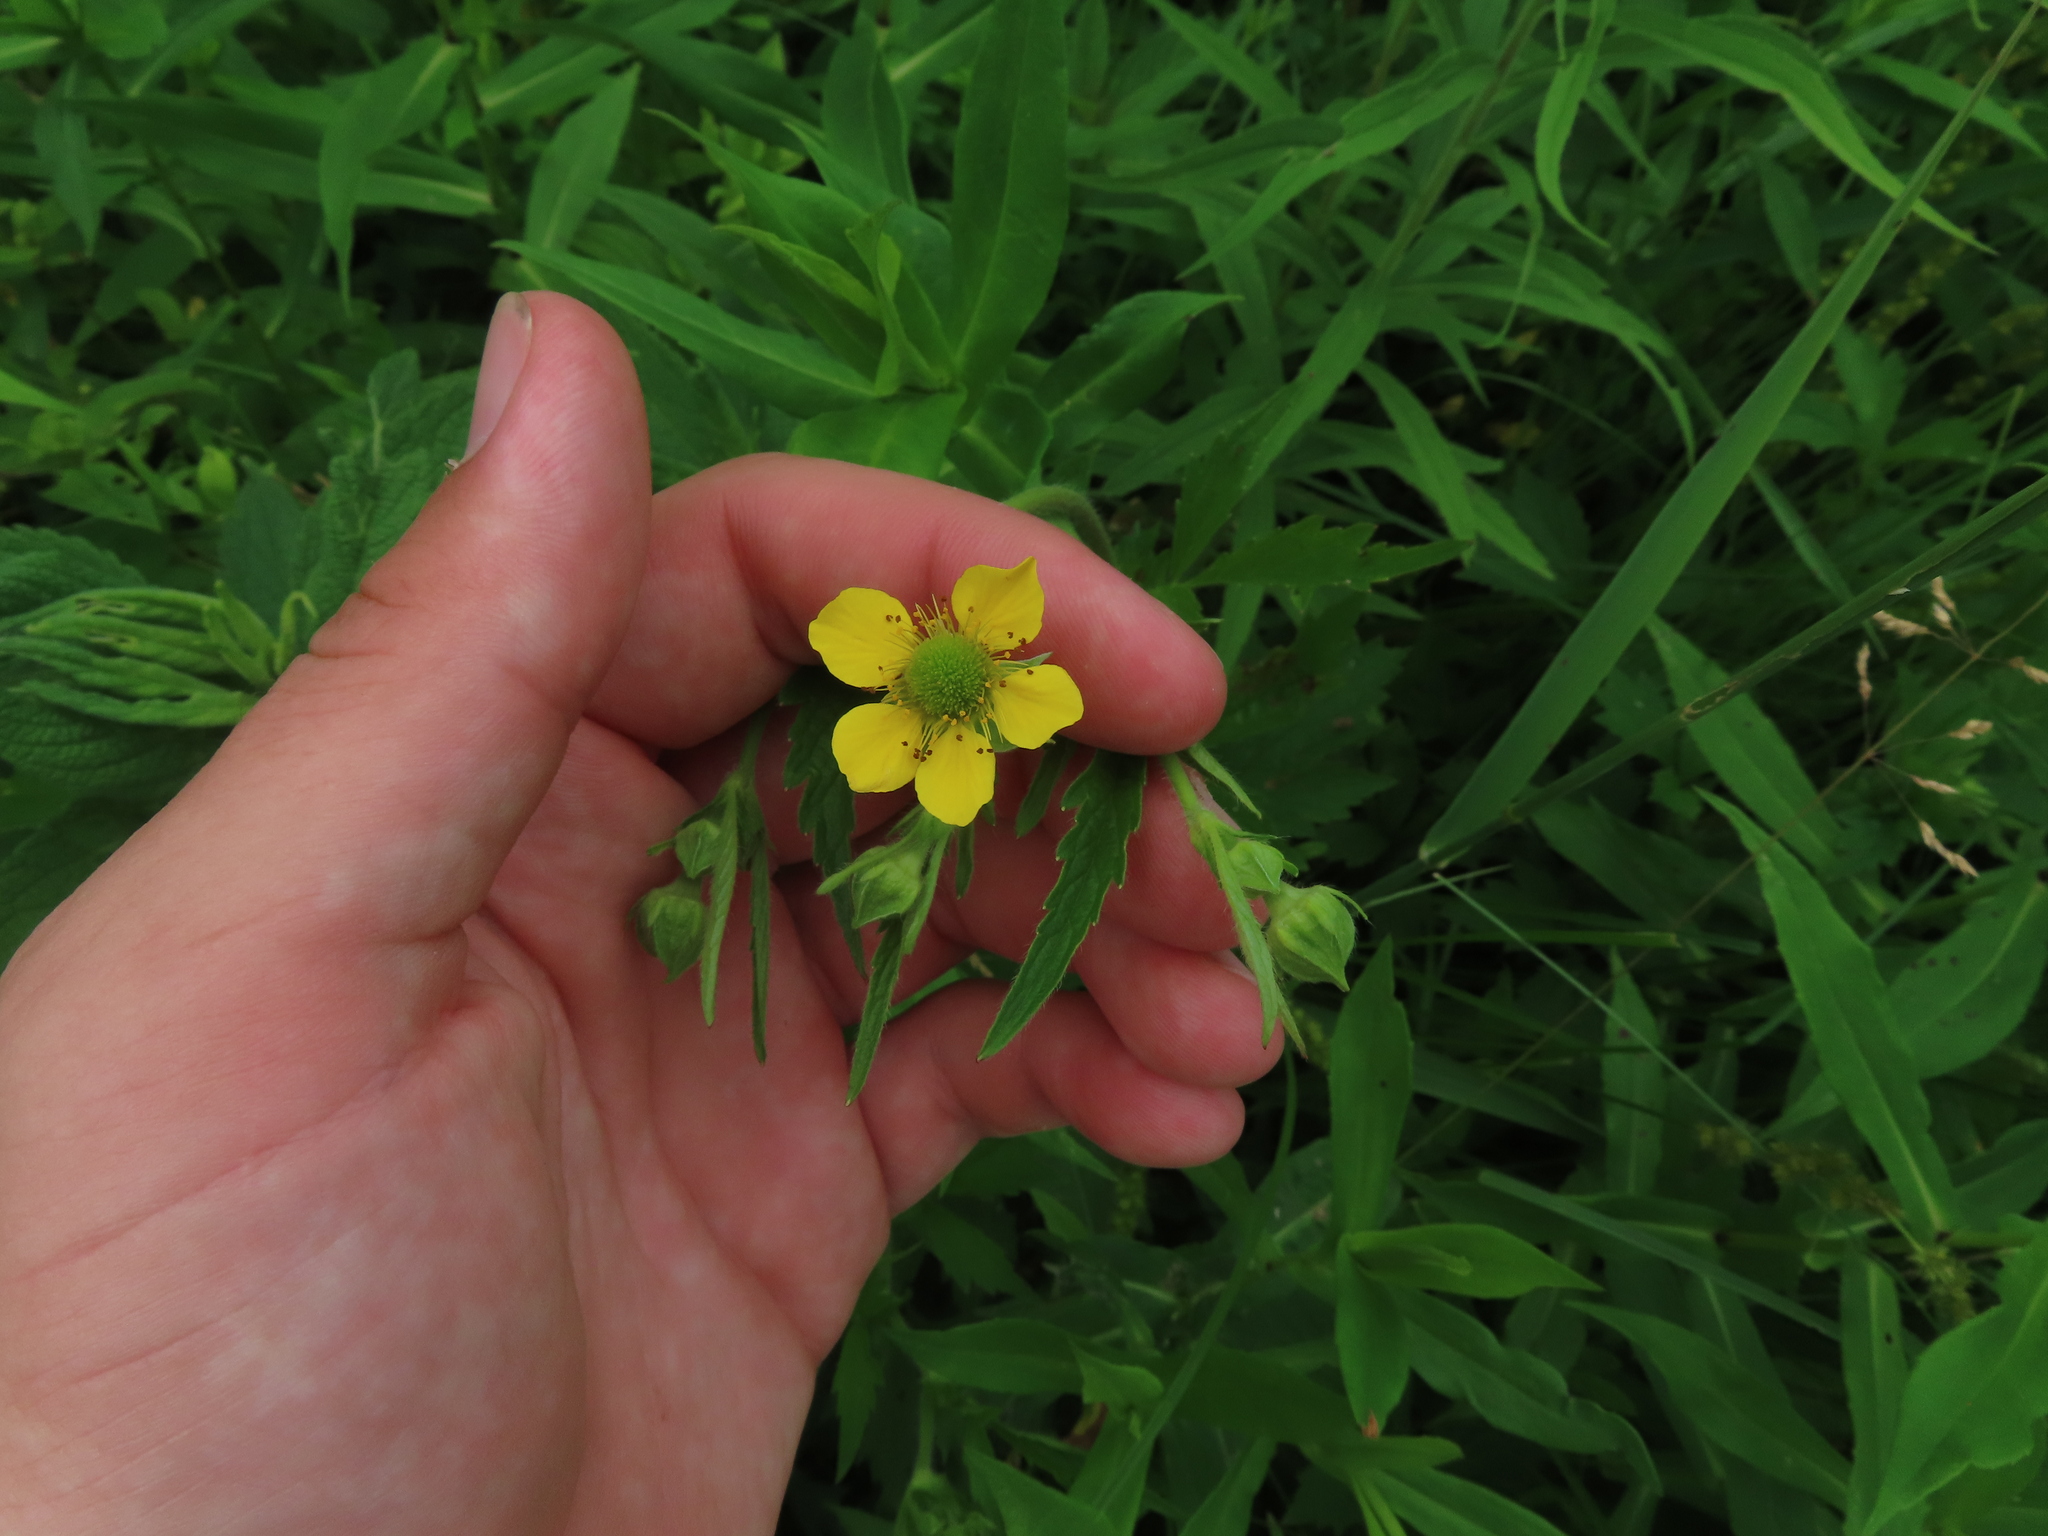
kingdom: Plantae
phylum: Tracheophyta
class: Magnoliopsida
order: Rosales
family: Rosaceae
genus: Geum
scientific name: Geum aleppicum
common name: Yellow avens
